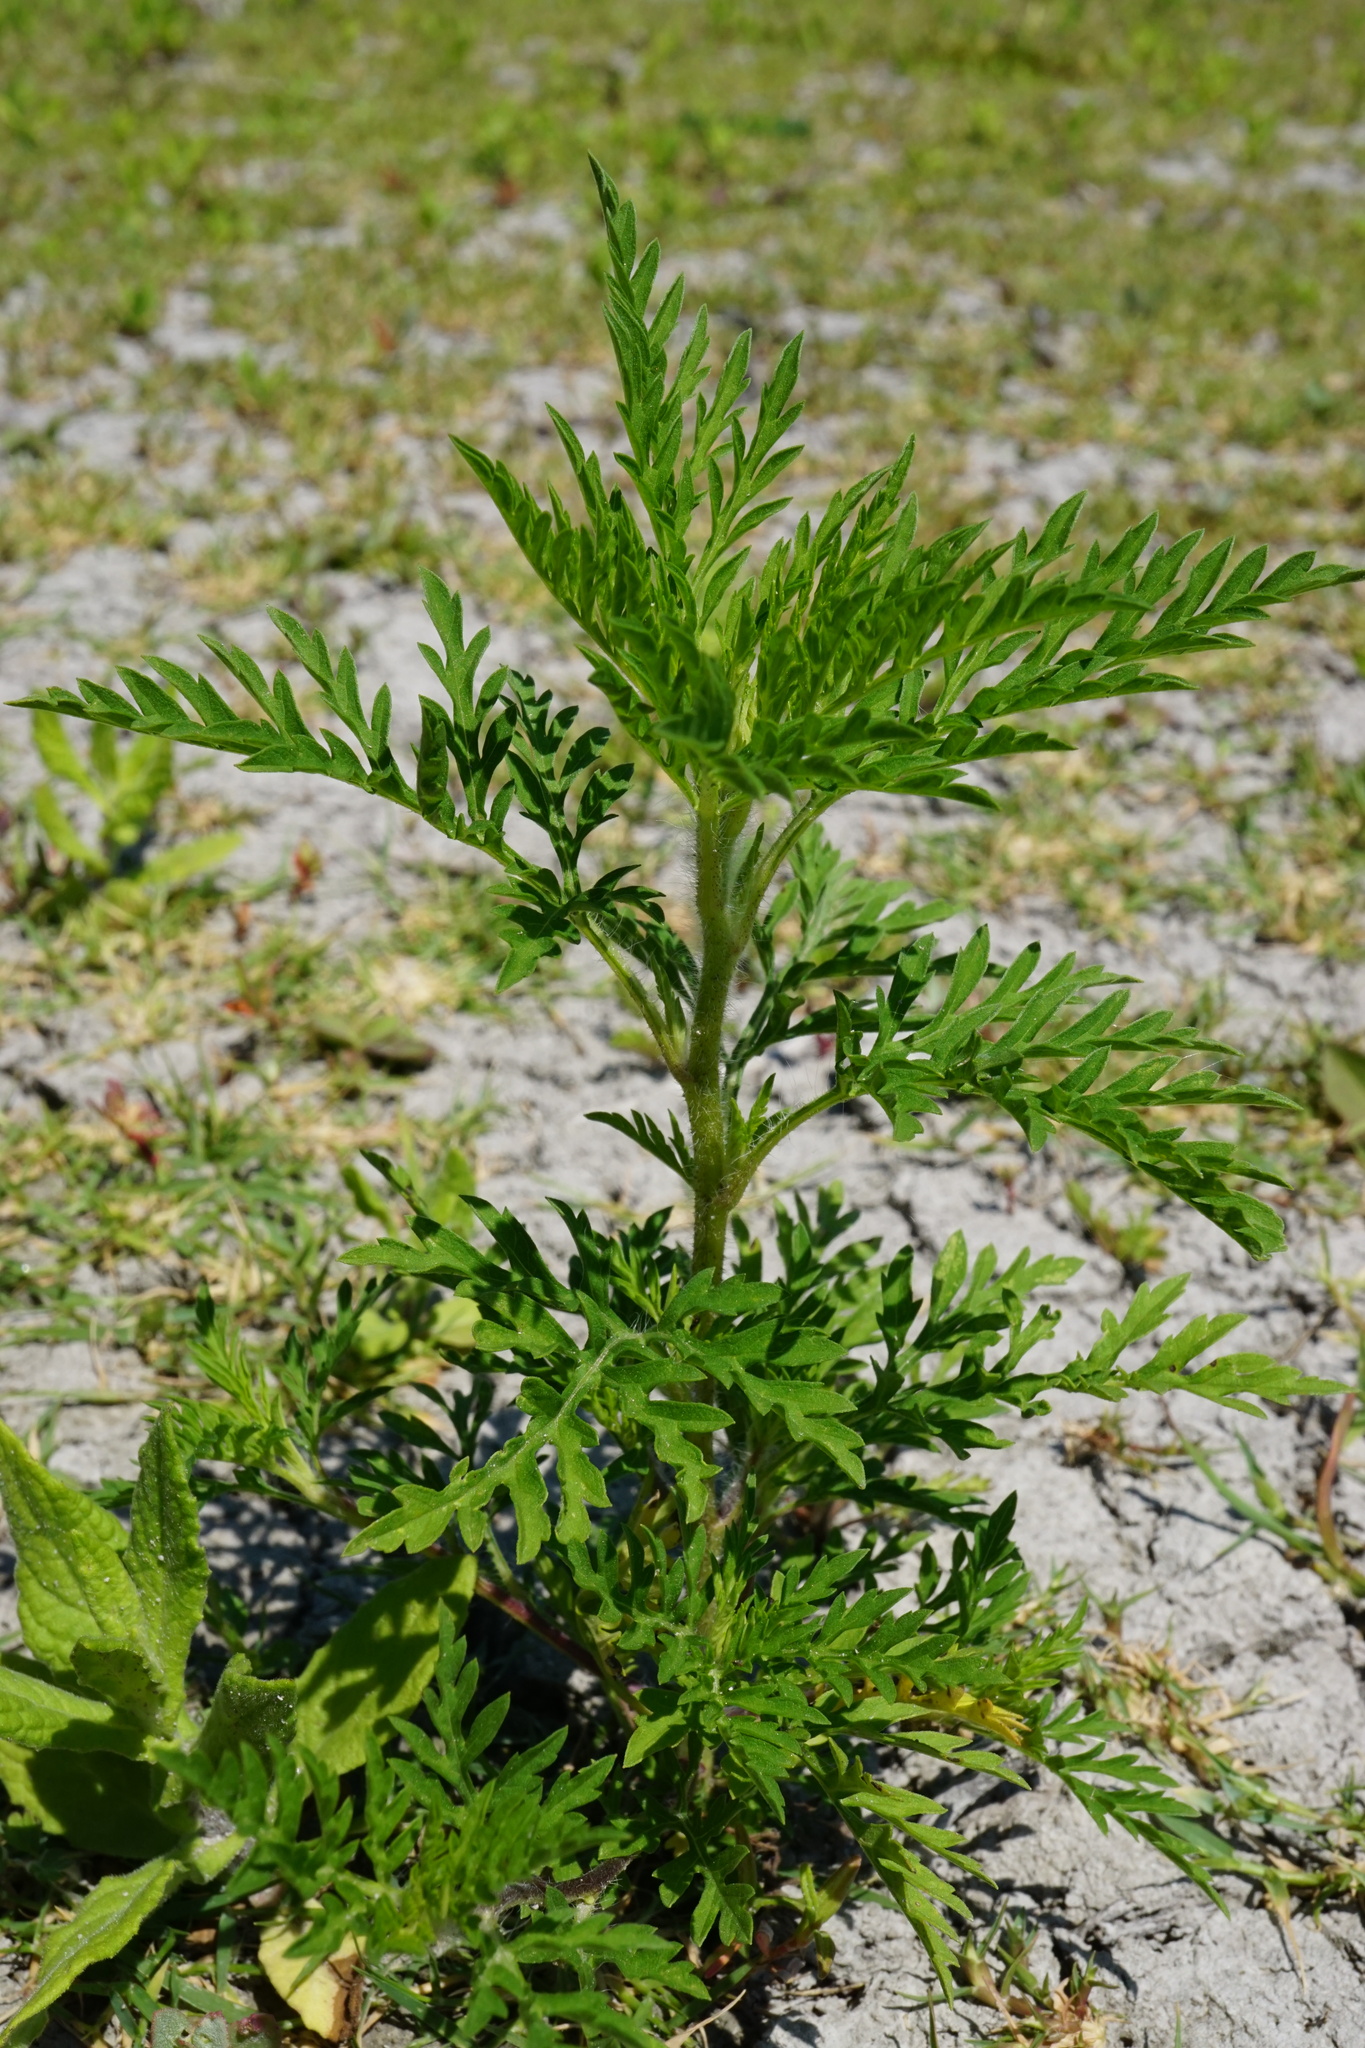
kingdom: Plantae
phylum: Tracheophyta
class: Magnoliopsida
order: Asterales
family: Asteraceae
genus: Ambrosia
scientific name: Ambrosia artemisiifolia
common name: Annual ragweed
